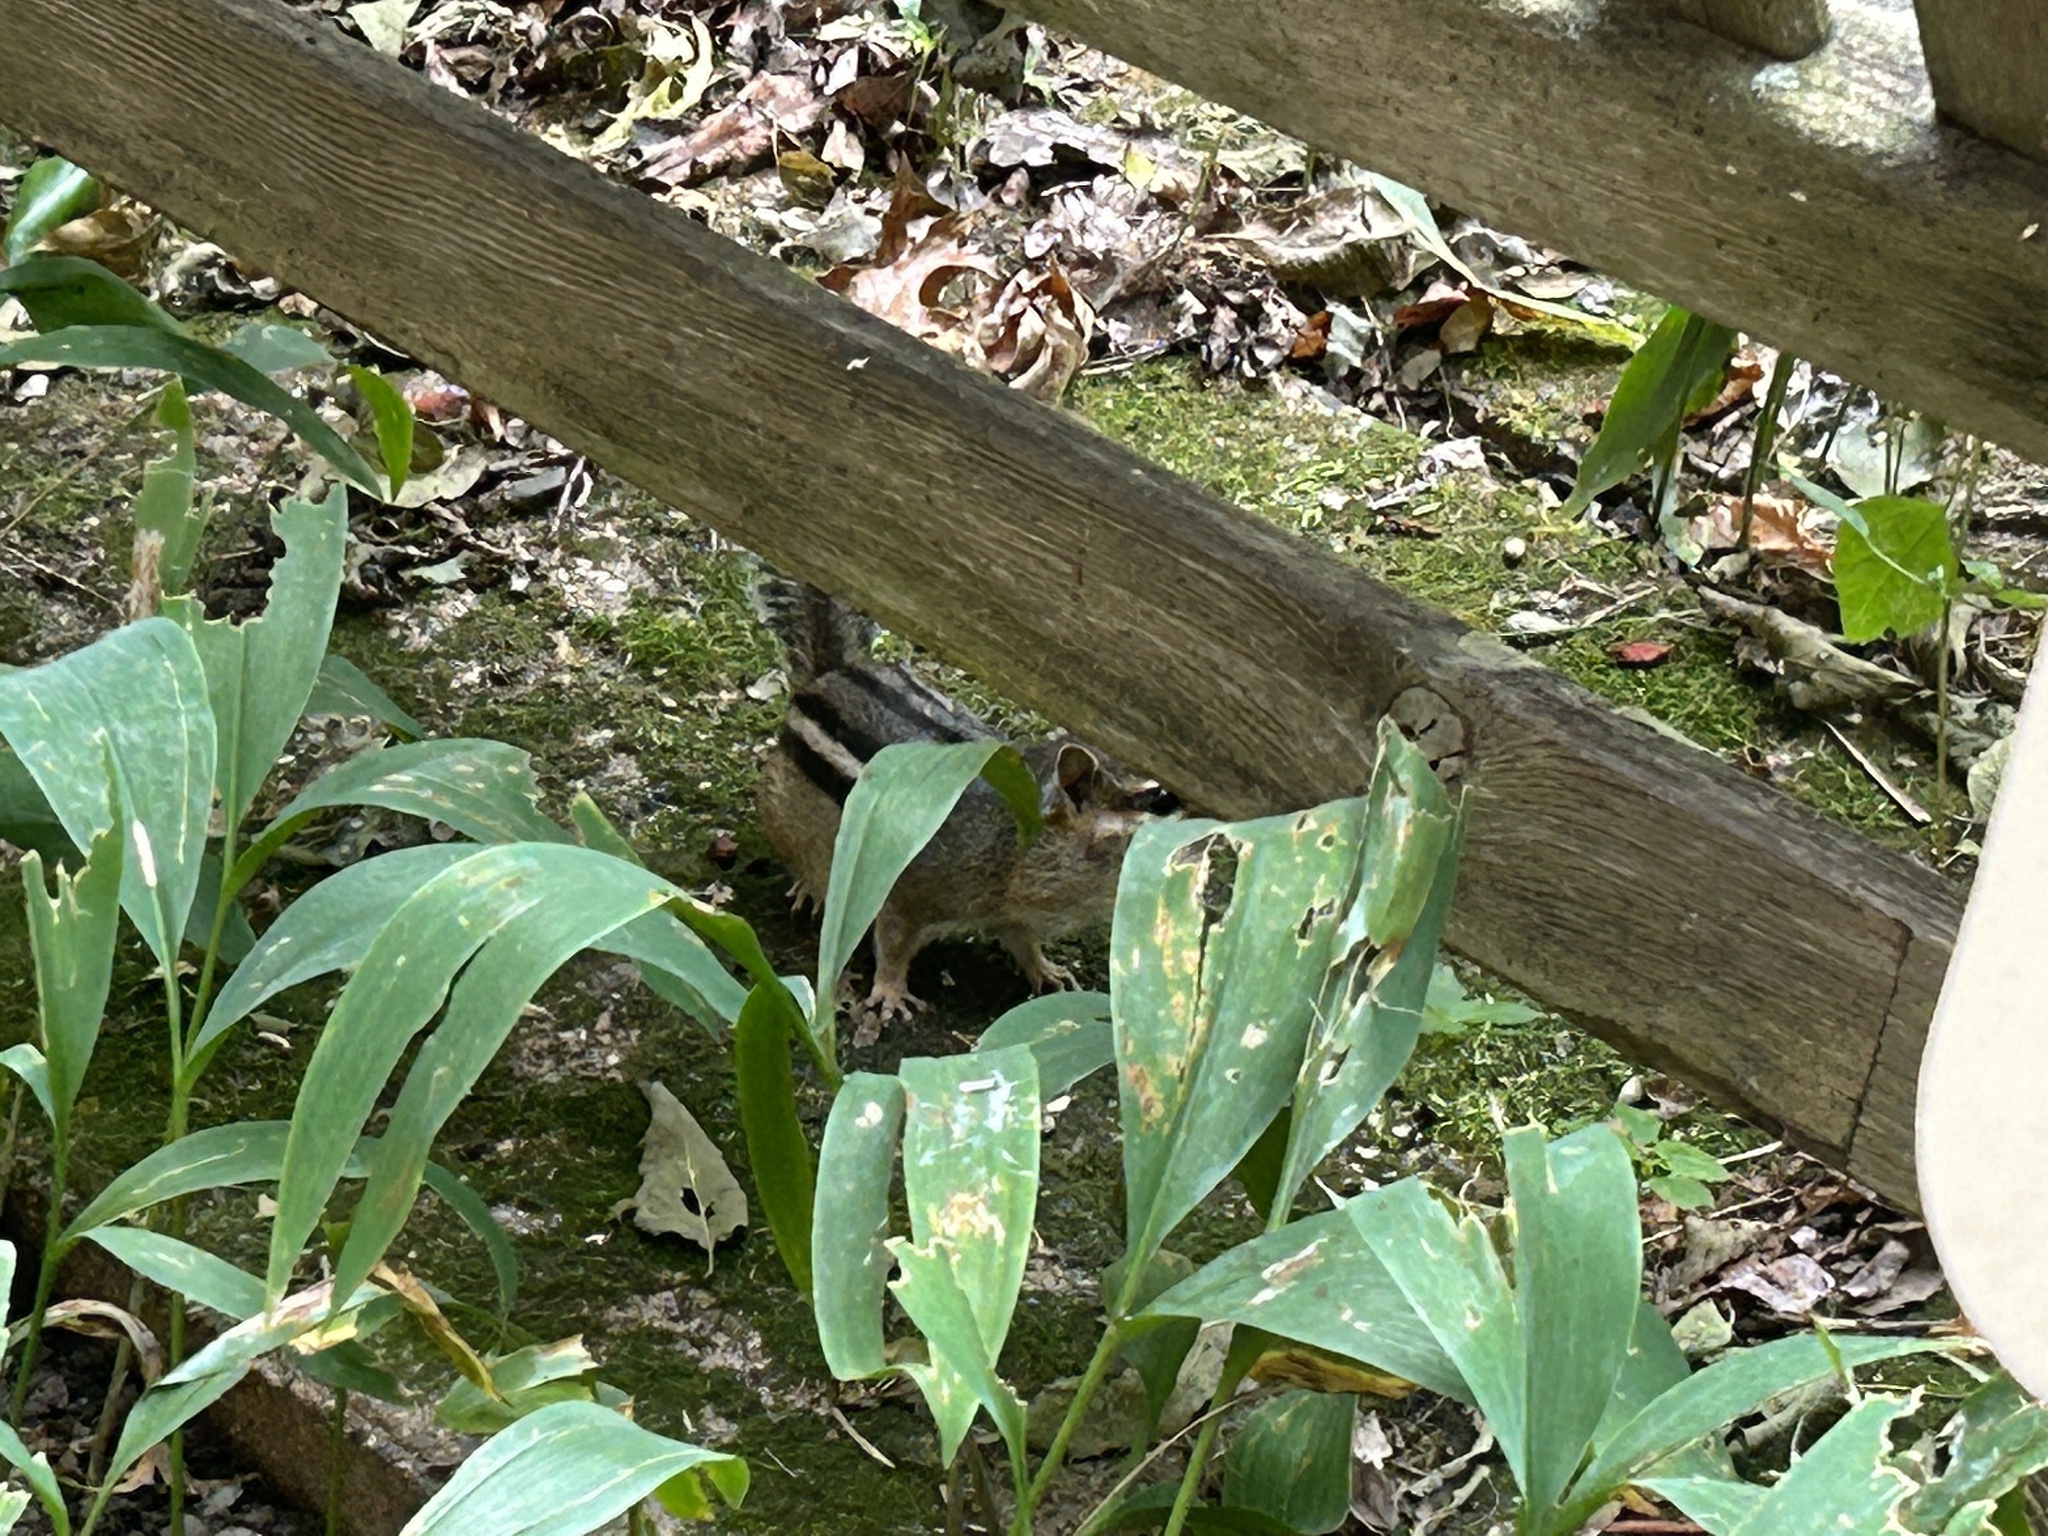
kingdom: Animalia
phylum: Chordata
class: Mammalia
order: Rodentia
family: Sciuridae
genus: Tamias
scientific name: Tamias striatus
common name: Eastern chipmunk
